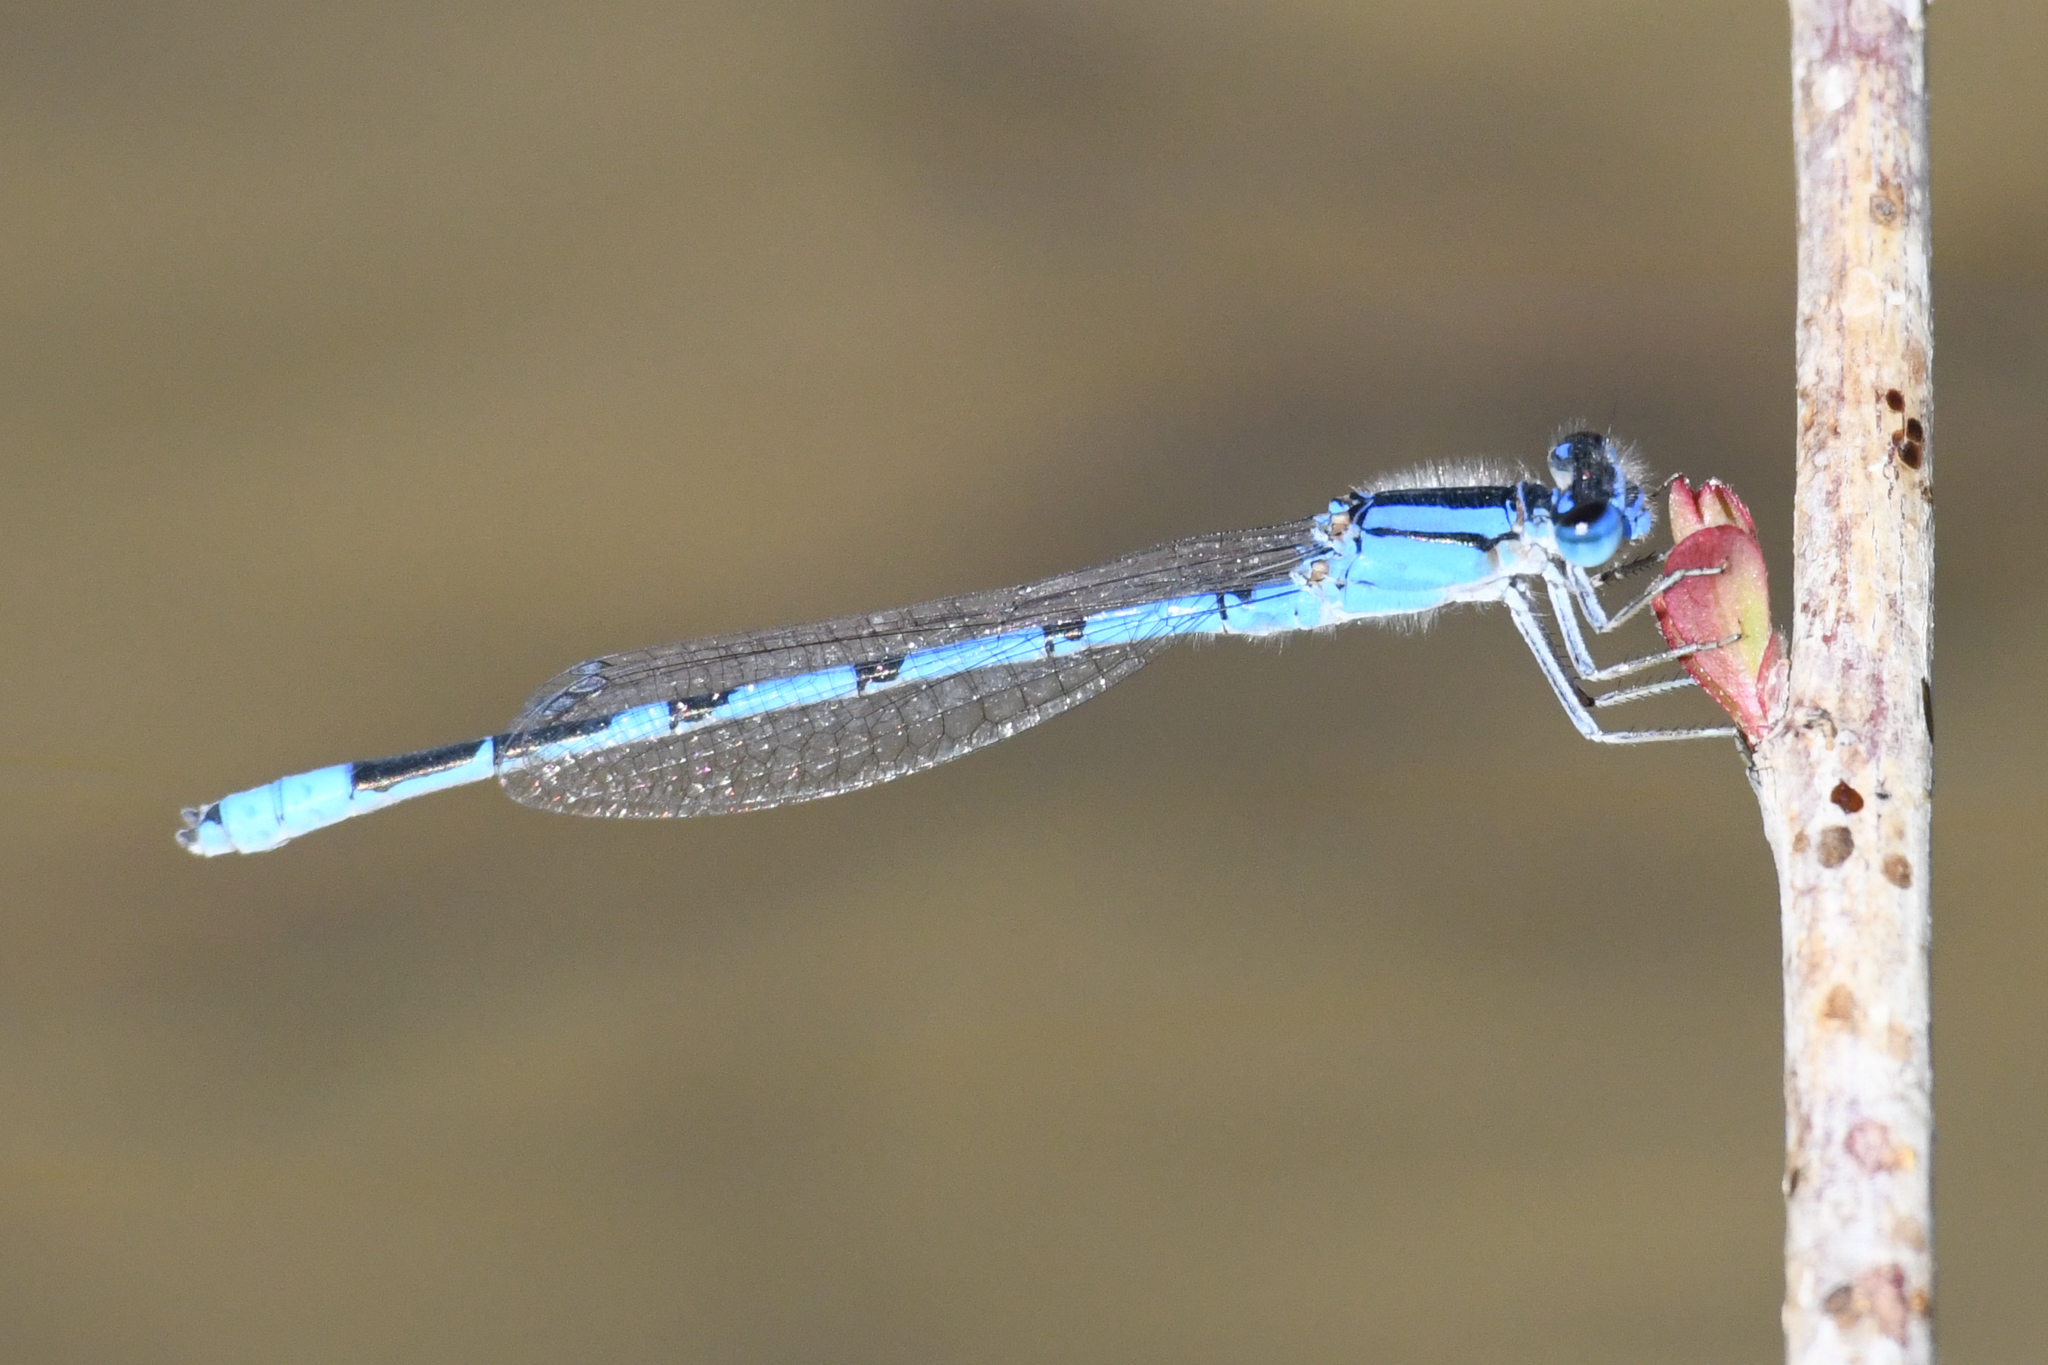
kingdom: Animalia
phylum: Arthropoda
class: Insecta
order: Odonata
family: Coenagrionidae
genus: Enallagma
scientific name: Enallagma civile
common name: Damselfly
